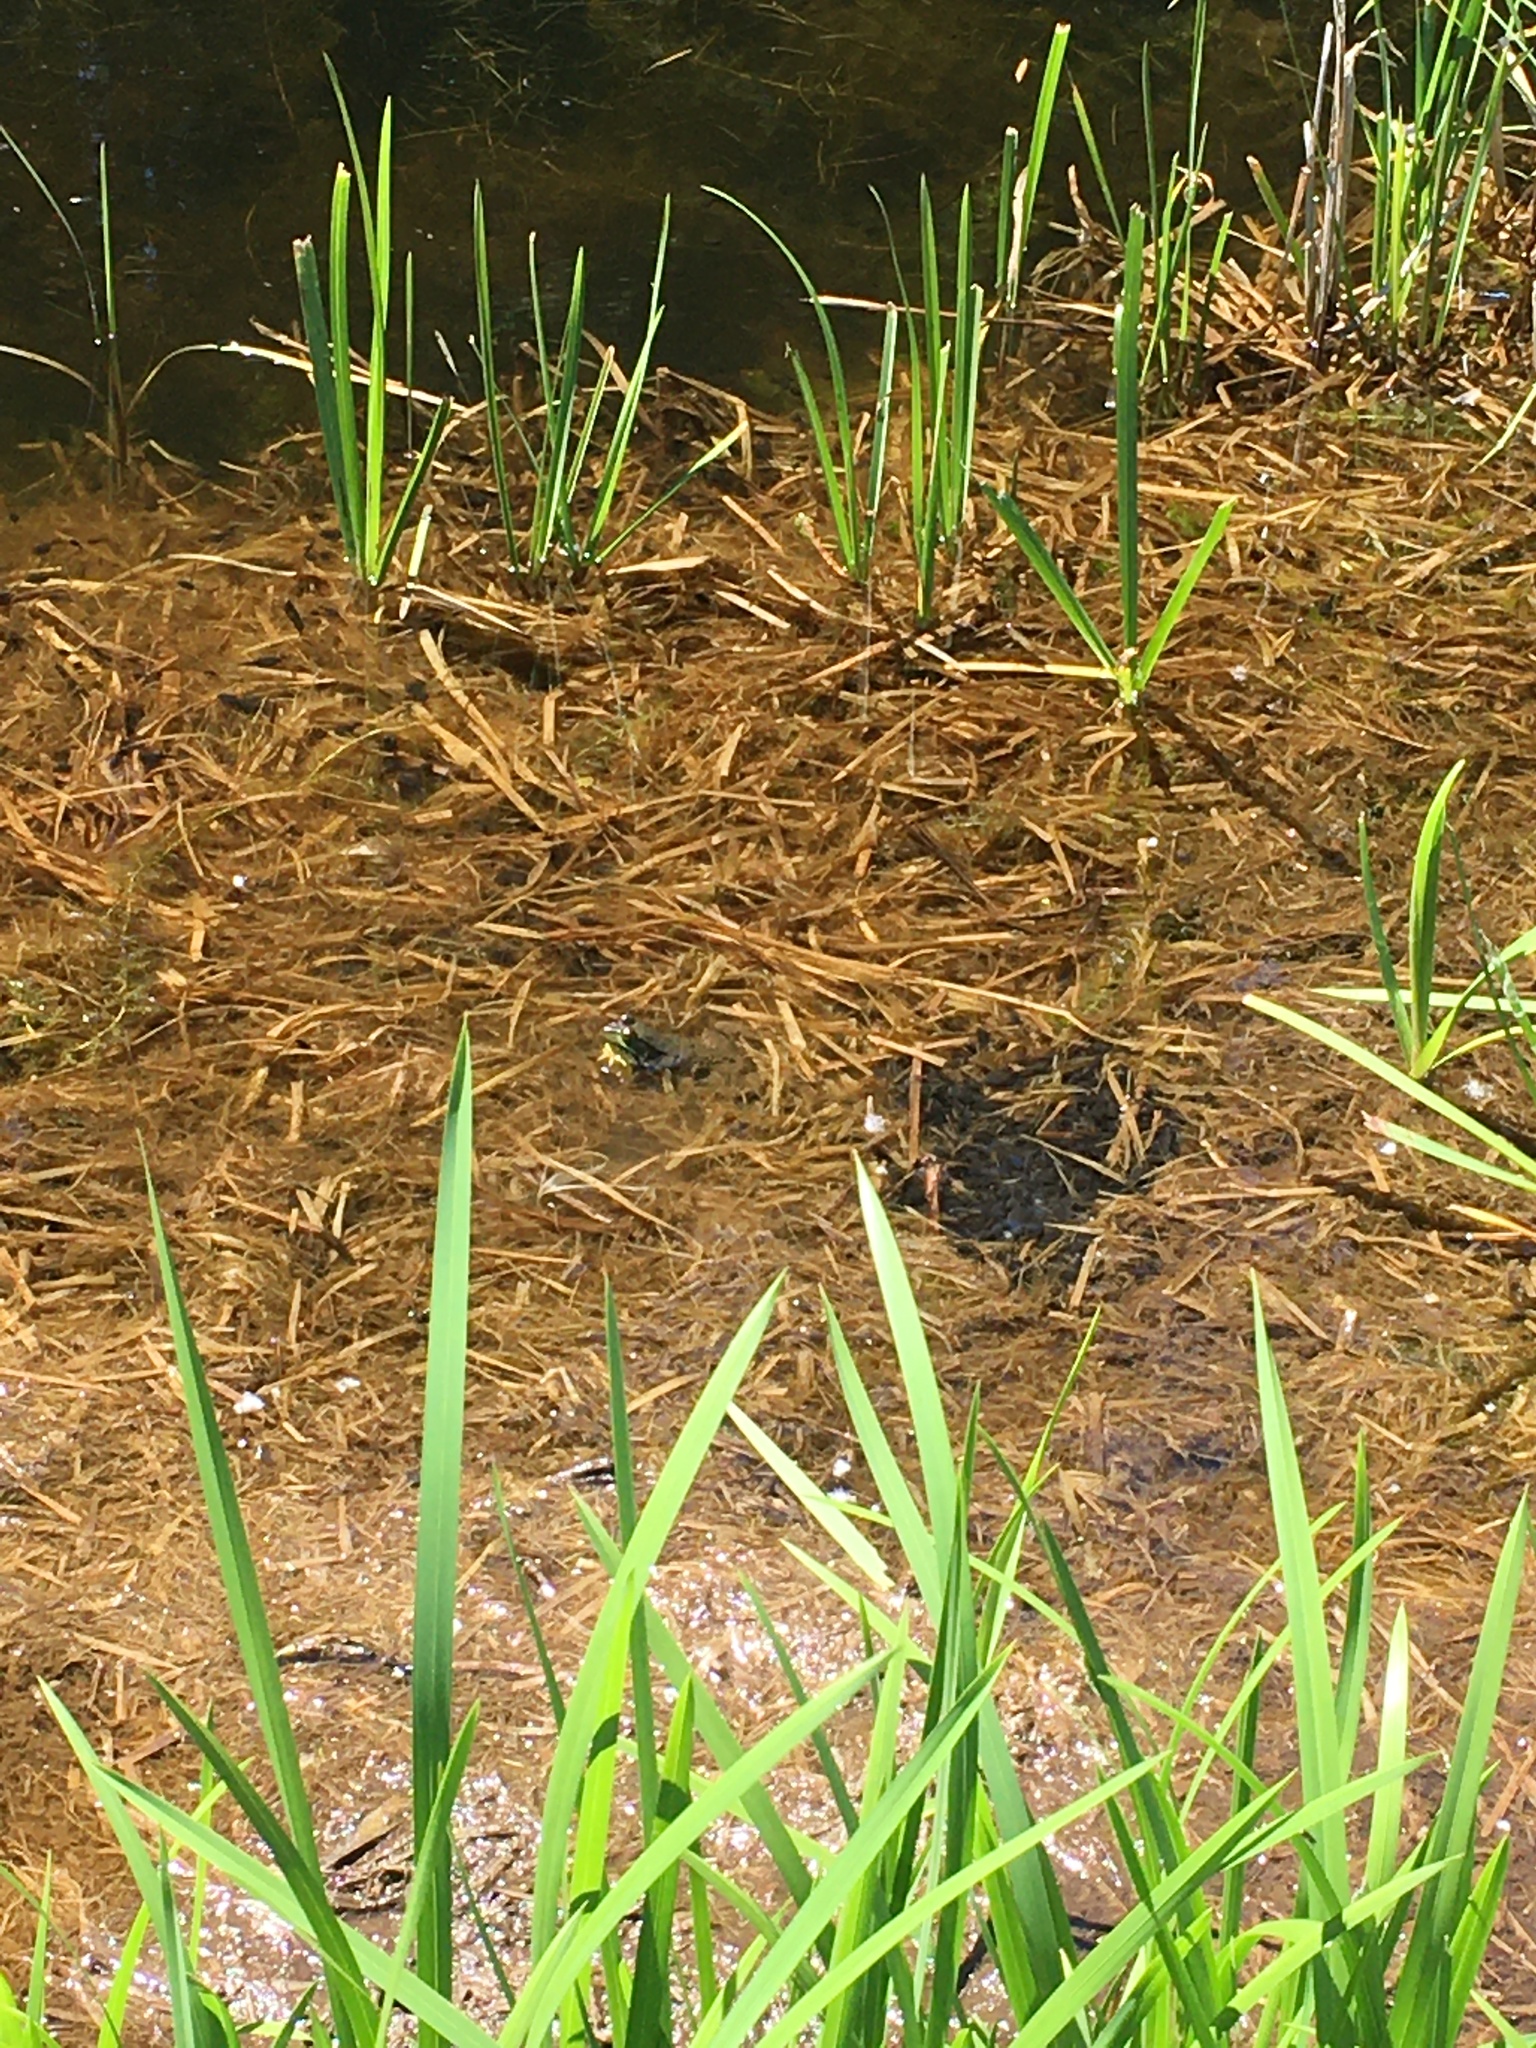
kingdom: Animalia
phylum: Chordata
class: Amphibia
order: Anura
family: Ranidae
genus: Lithobates
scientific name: Lithobates clamitans
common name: Green frog
